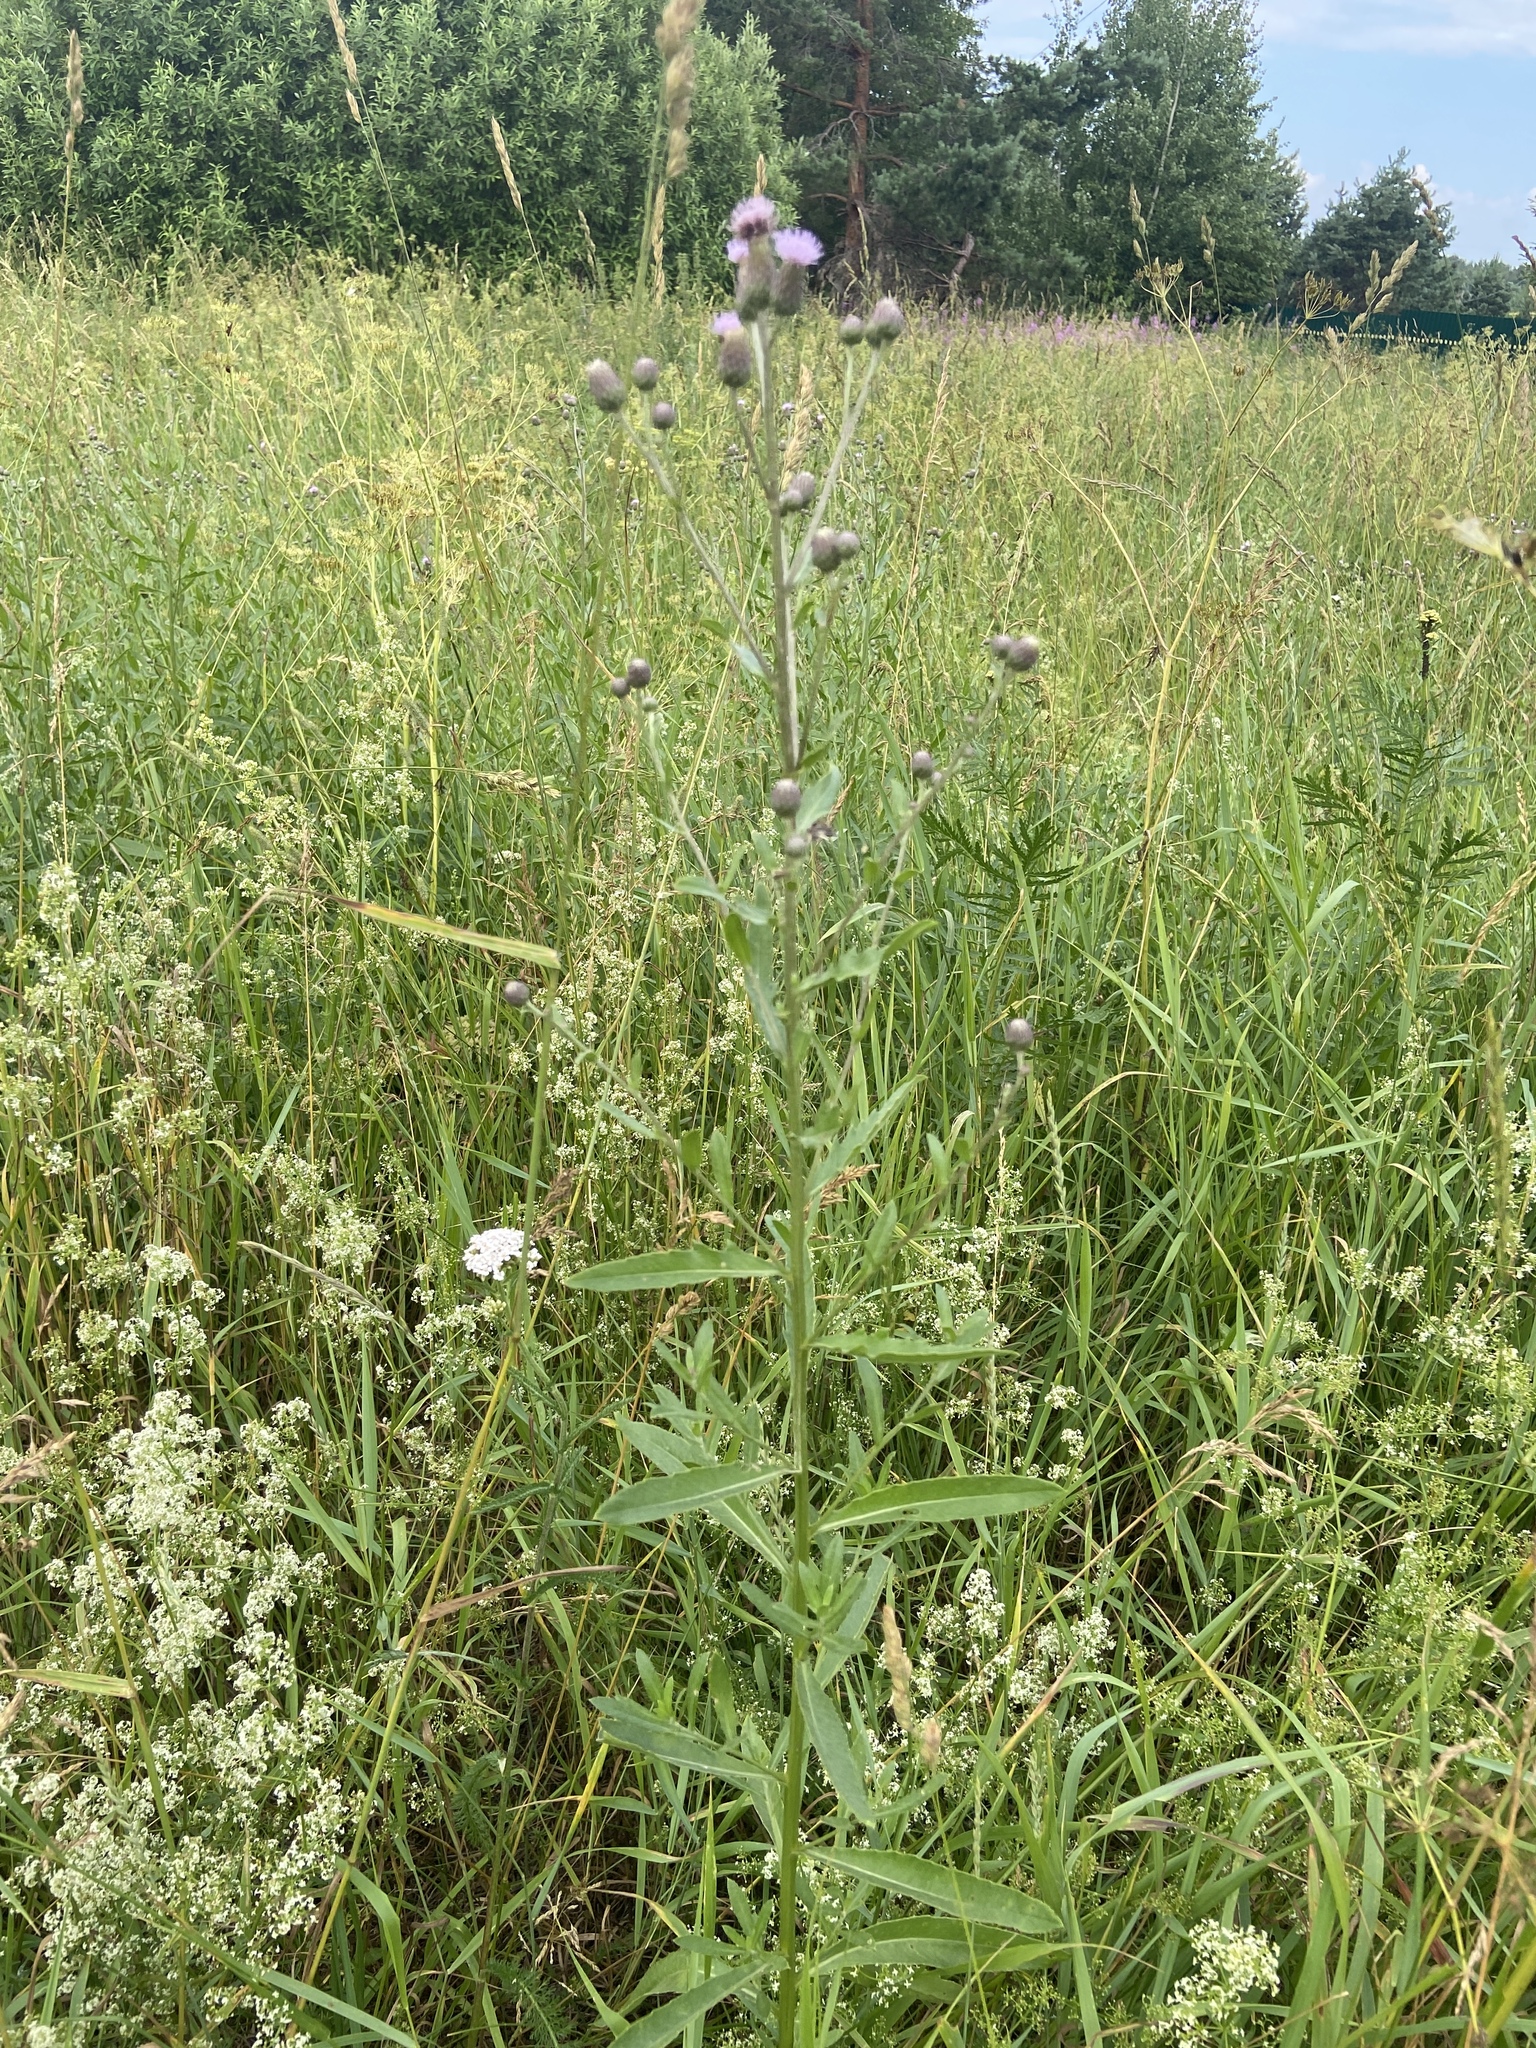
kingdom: Plantae
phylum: Tracheophyta
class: Magnoliopsida
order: Asterales
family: Asteraceae
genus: Cirsium
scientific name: Cirsium arvense
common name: Creeping thistle
